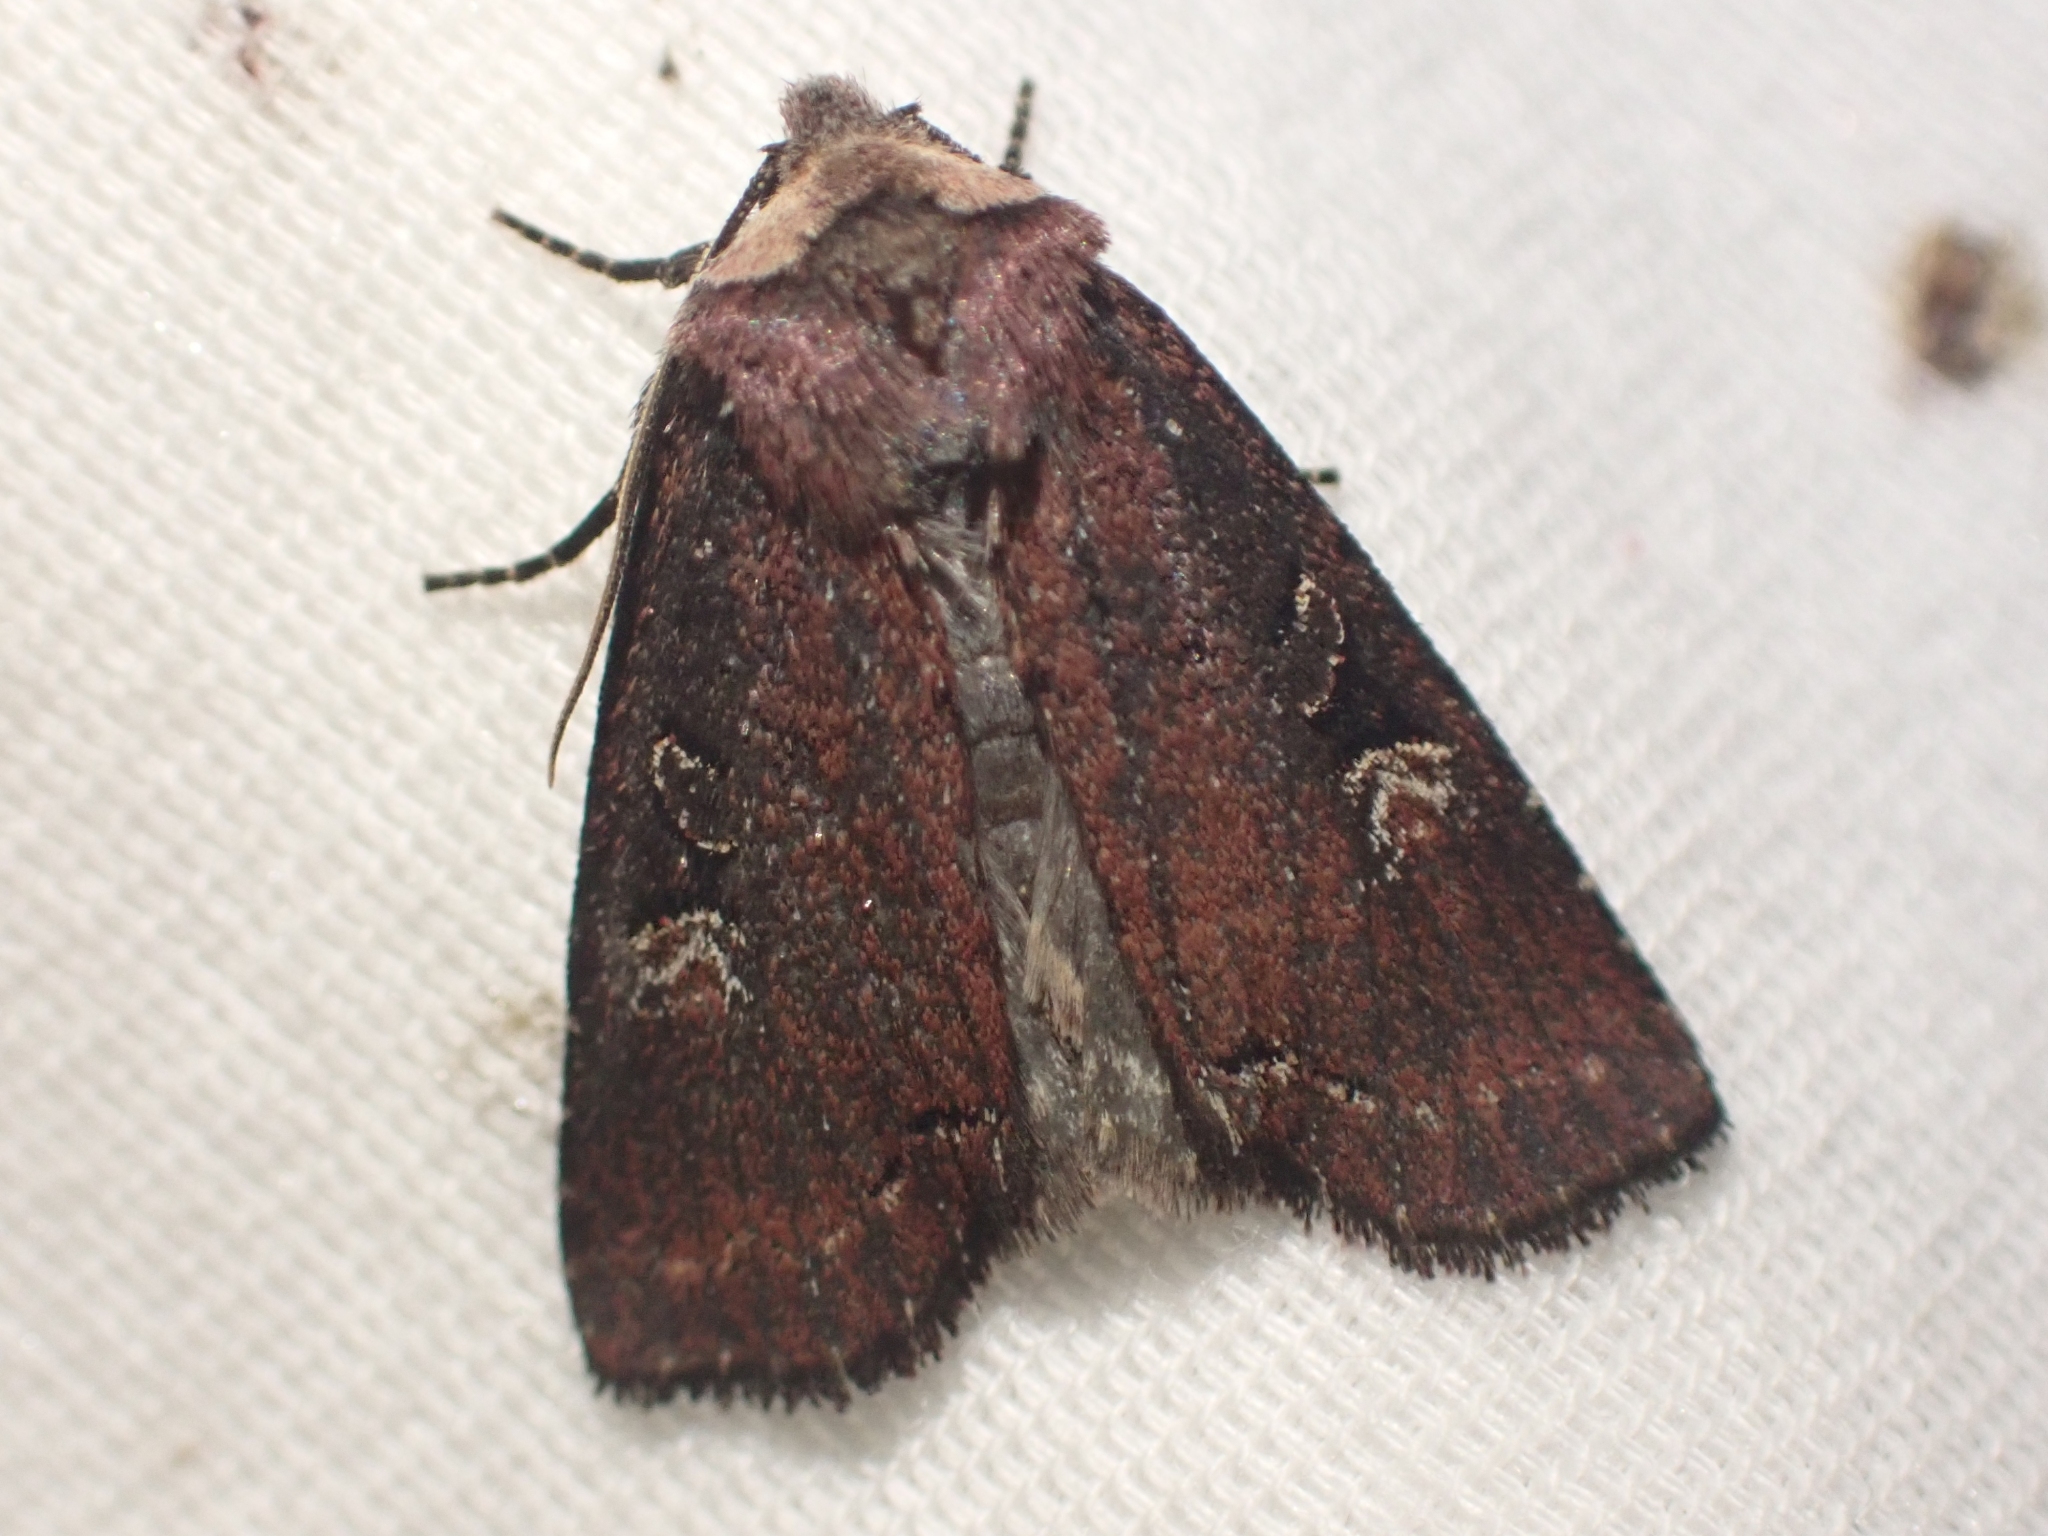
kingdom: Animalia
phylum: Arthropoda
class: Insecta
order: Lepidoptera
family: Noctuidae
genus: Hillia
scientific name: Hillia iris
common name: Iris rover moth
